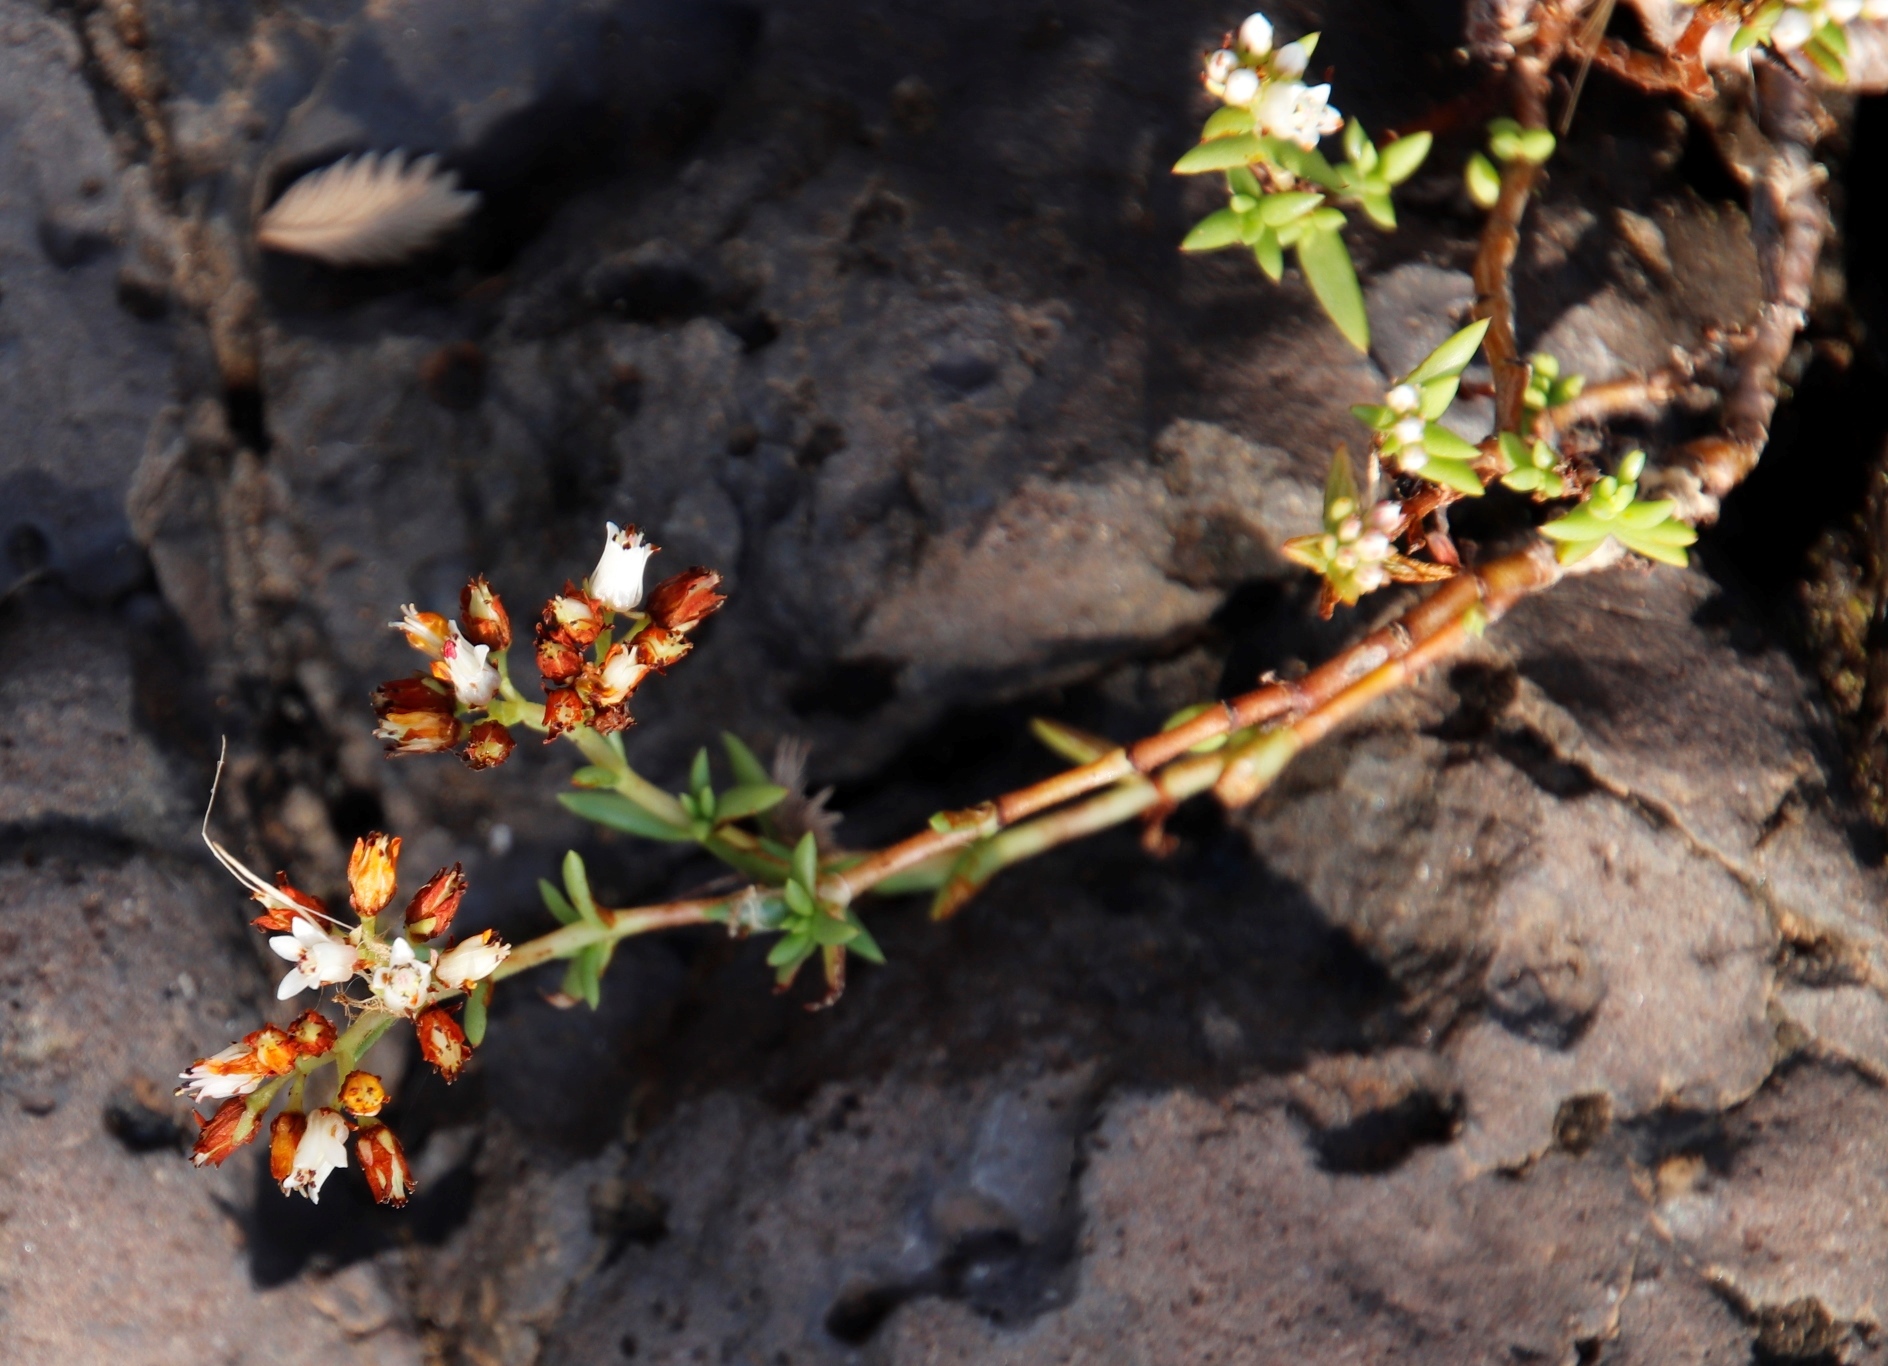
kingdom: Plantae
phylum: Tracheophyta
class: Magnoliopsida
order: Saxifragales
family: Crassulaceae
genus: Crassula
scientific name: Crassula dependens
